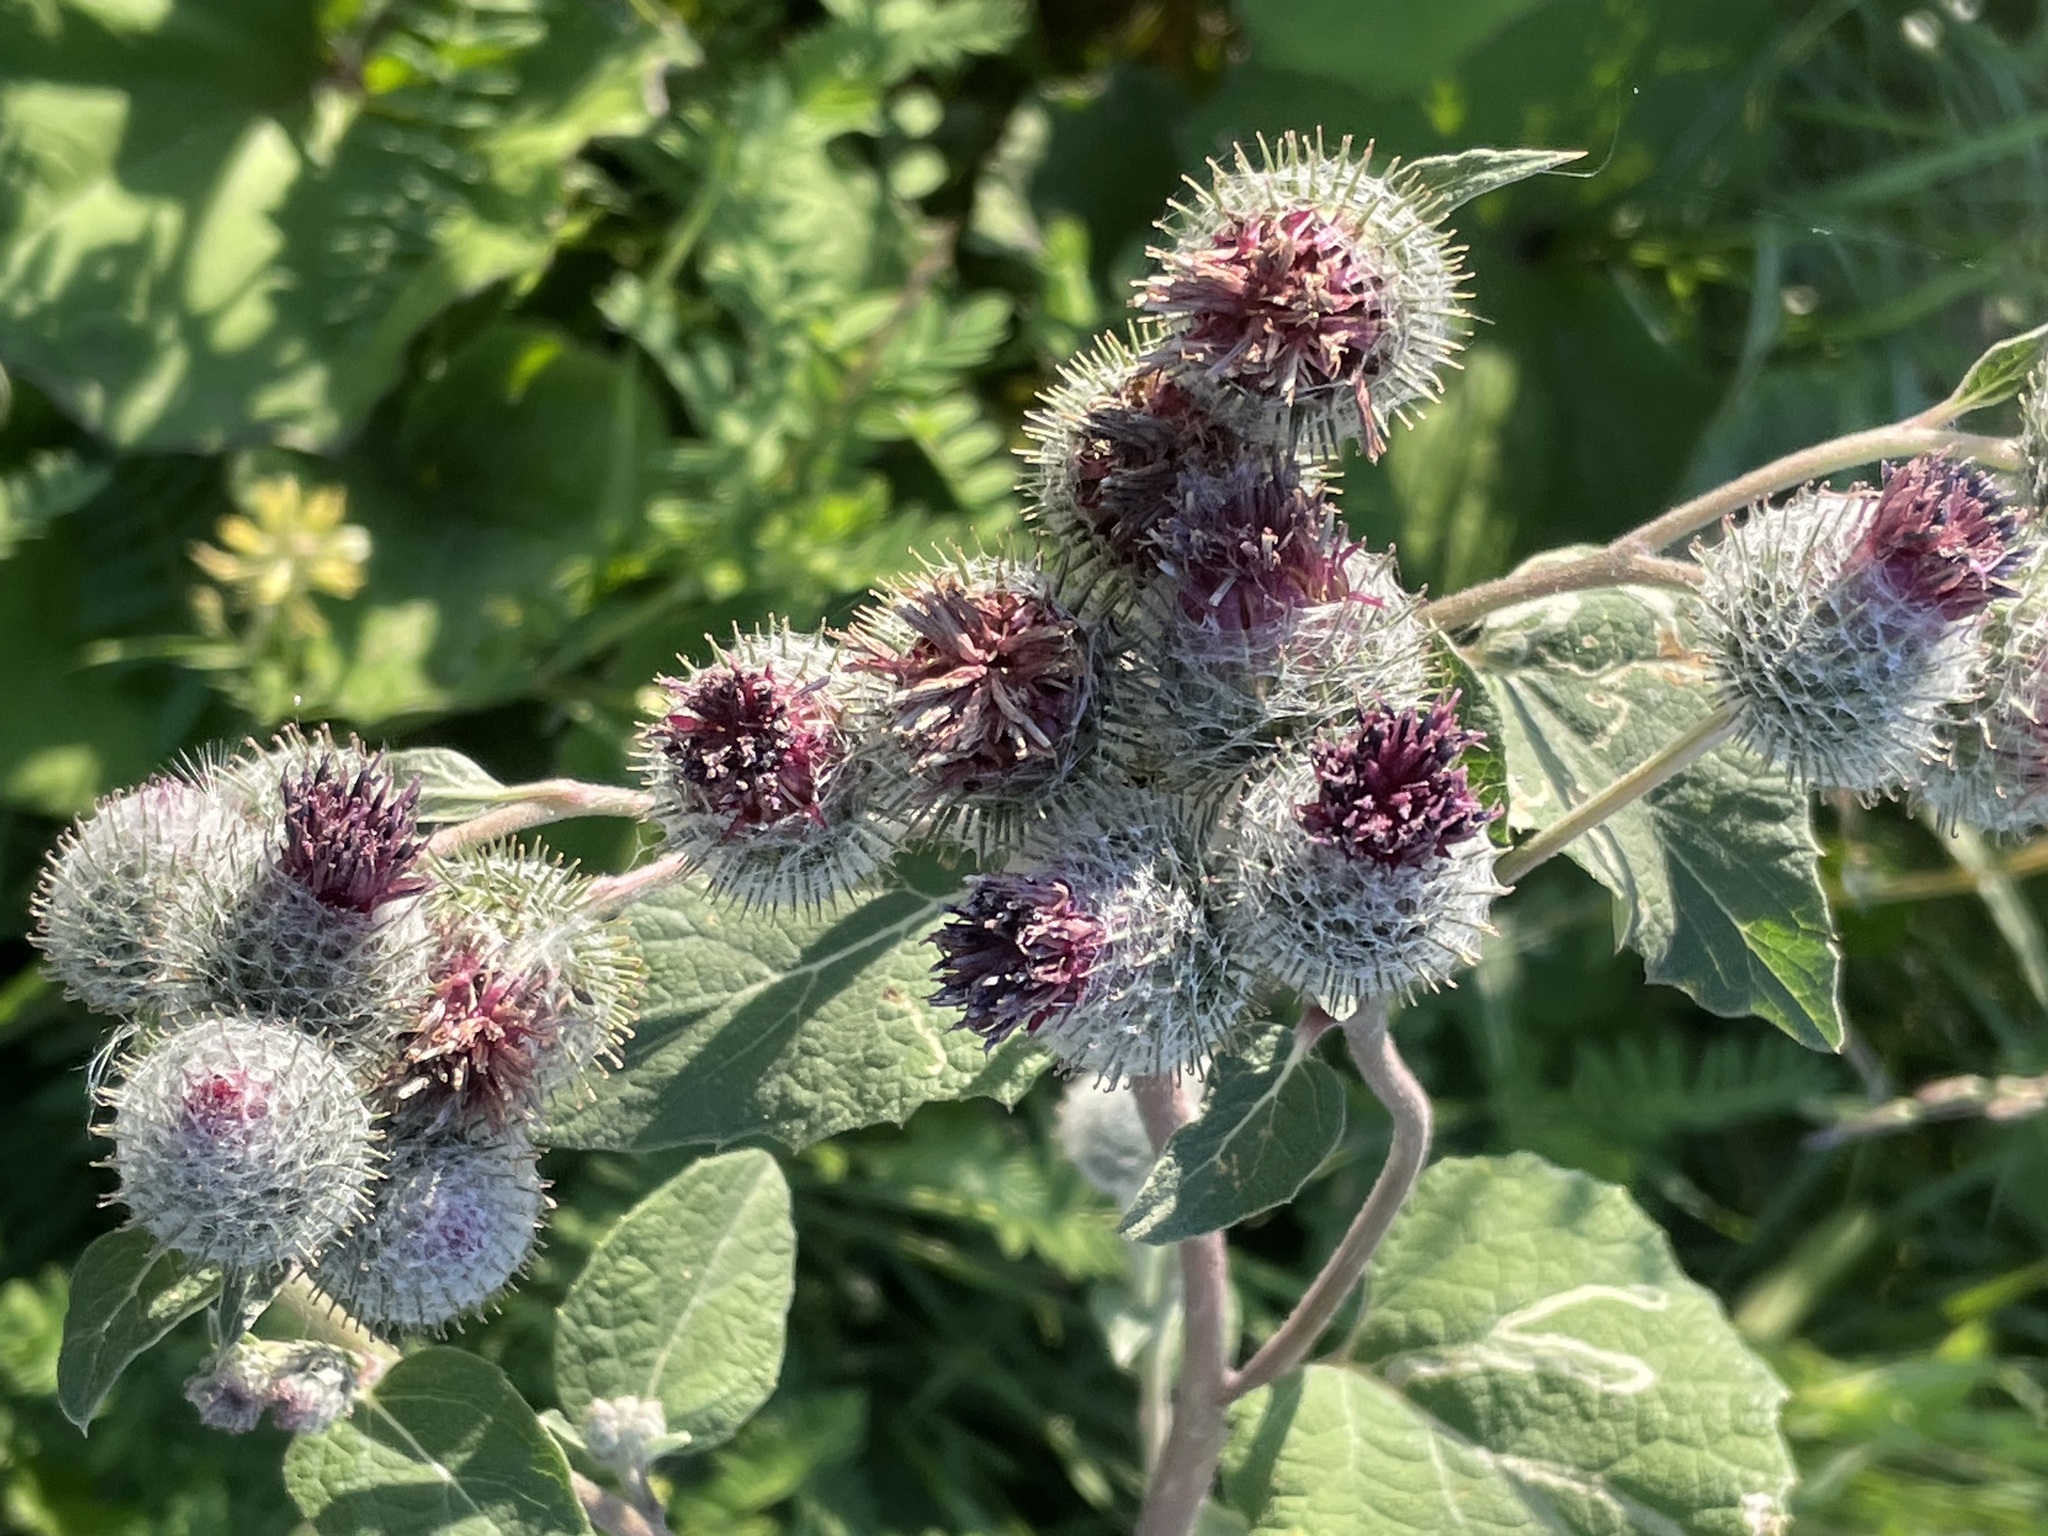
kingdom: Plantae
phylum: Tracheophyta
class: Magnoliopsida
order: Asterales
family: Asteraceae
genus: Arctium
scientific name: Arctium tomentosum
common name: Woolly burdock
